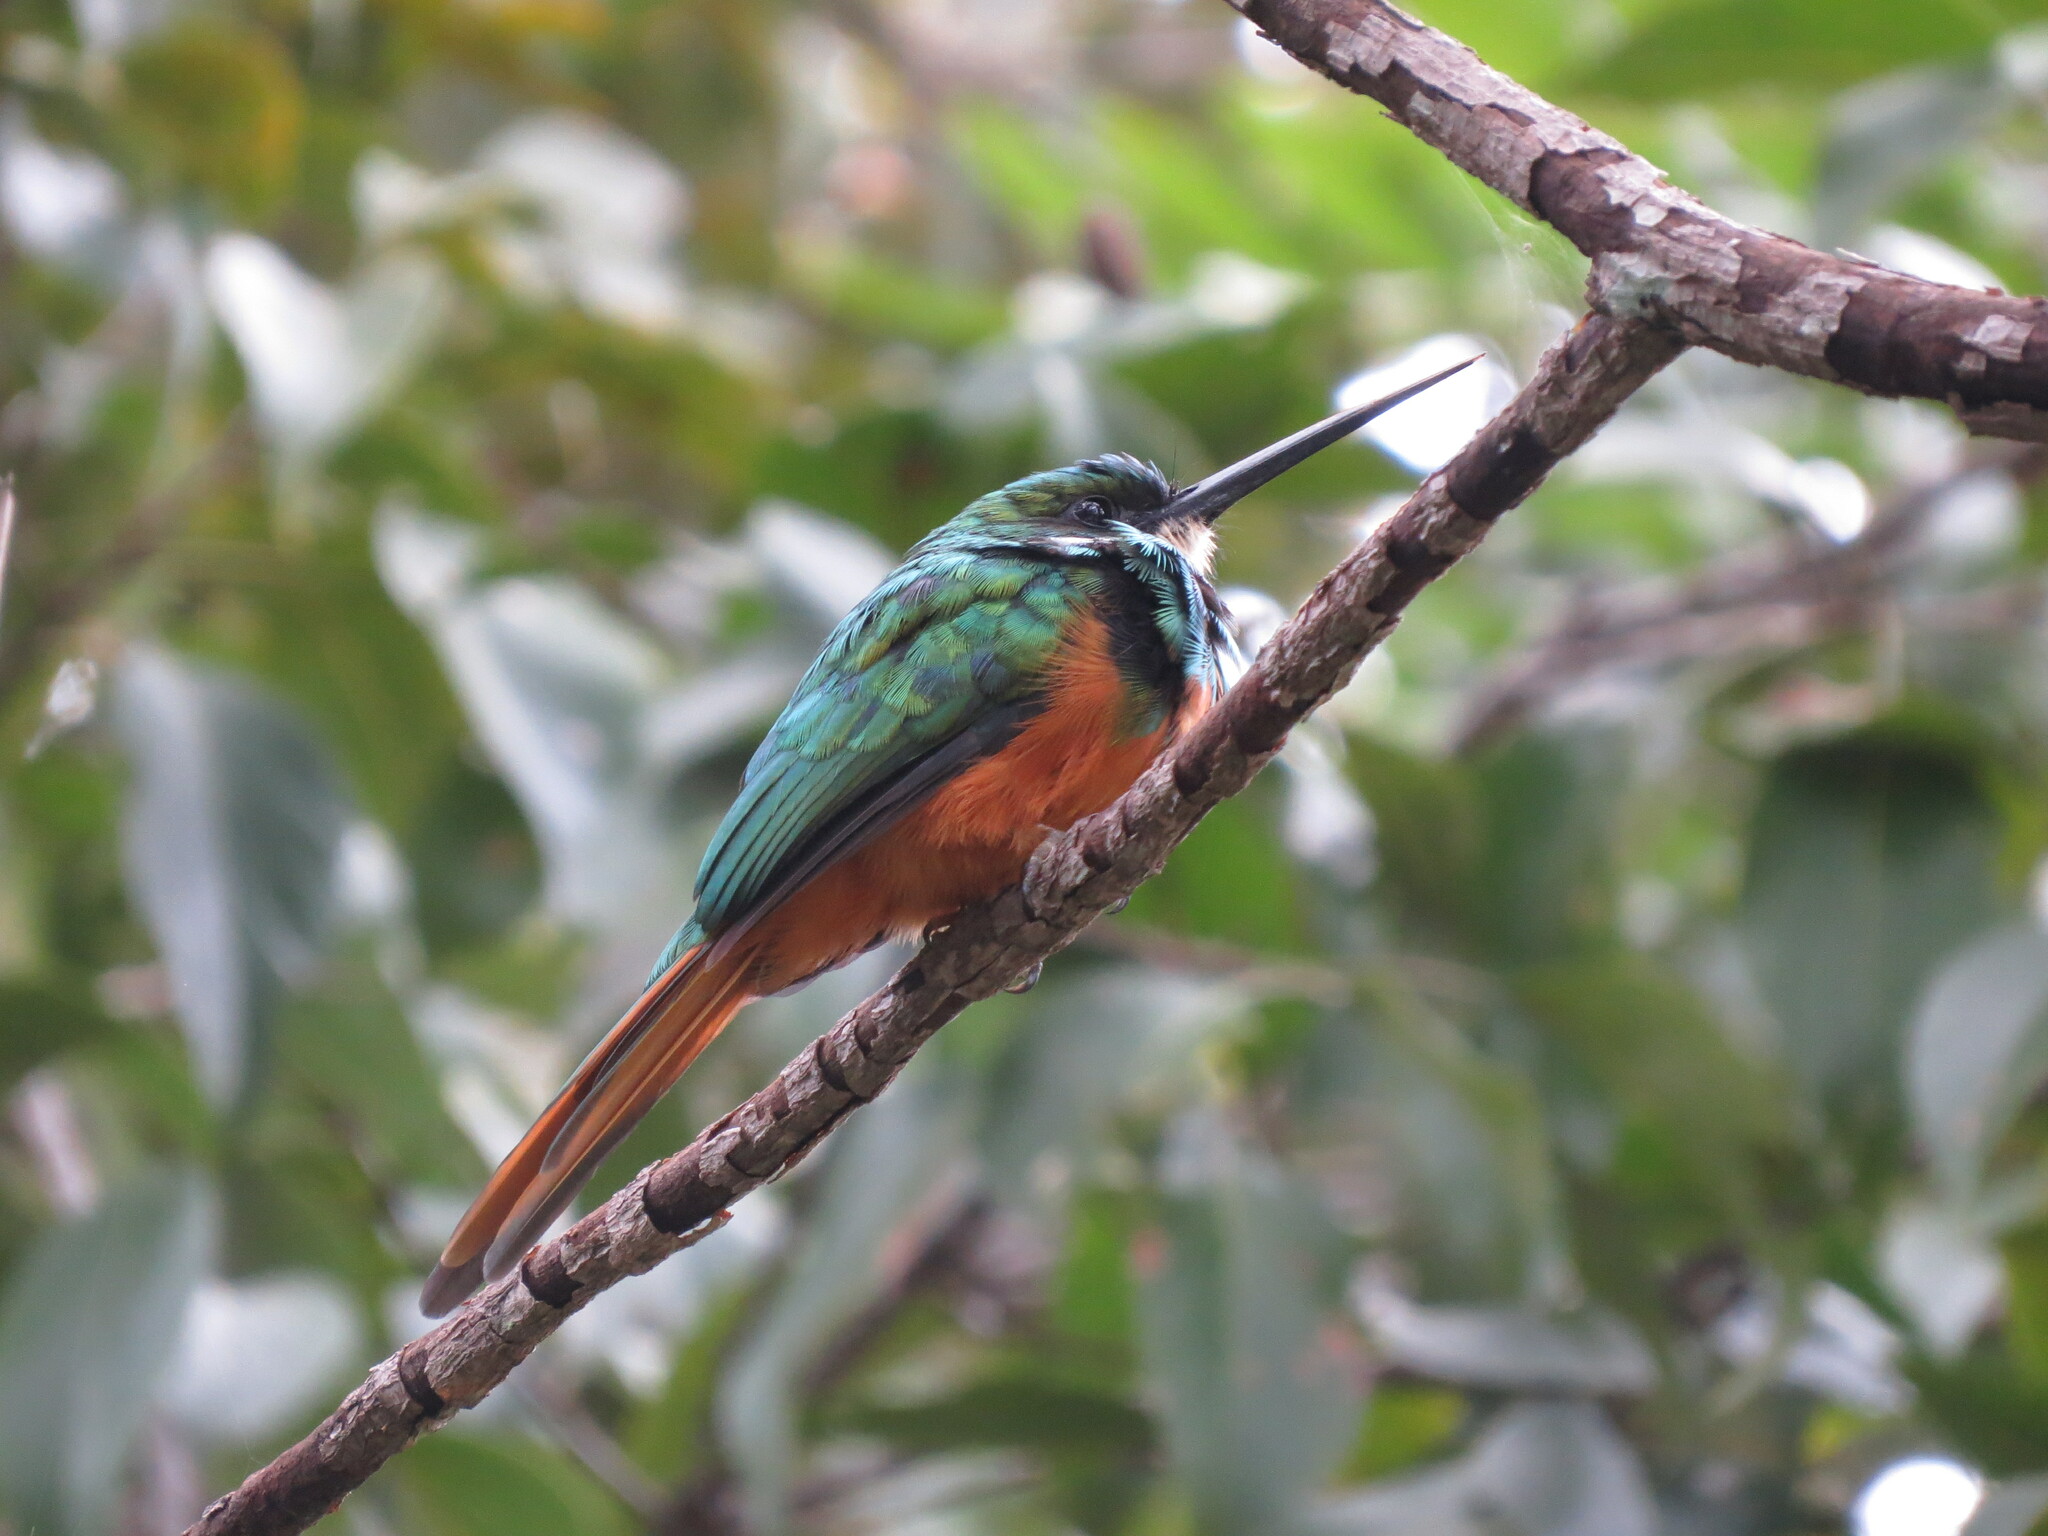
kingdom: Animalia
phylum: Chordata
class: Aves
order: Piciformes
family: Galbulidae
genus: Galbula
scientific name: Galbula ruficauda
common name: Rufous-tailed jacamar
